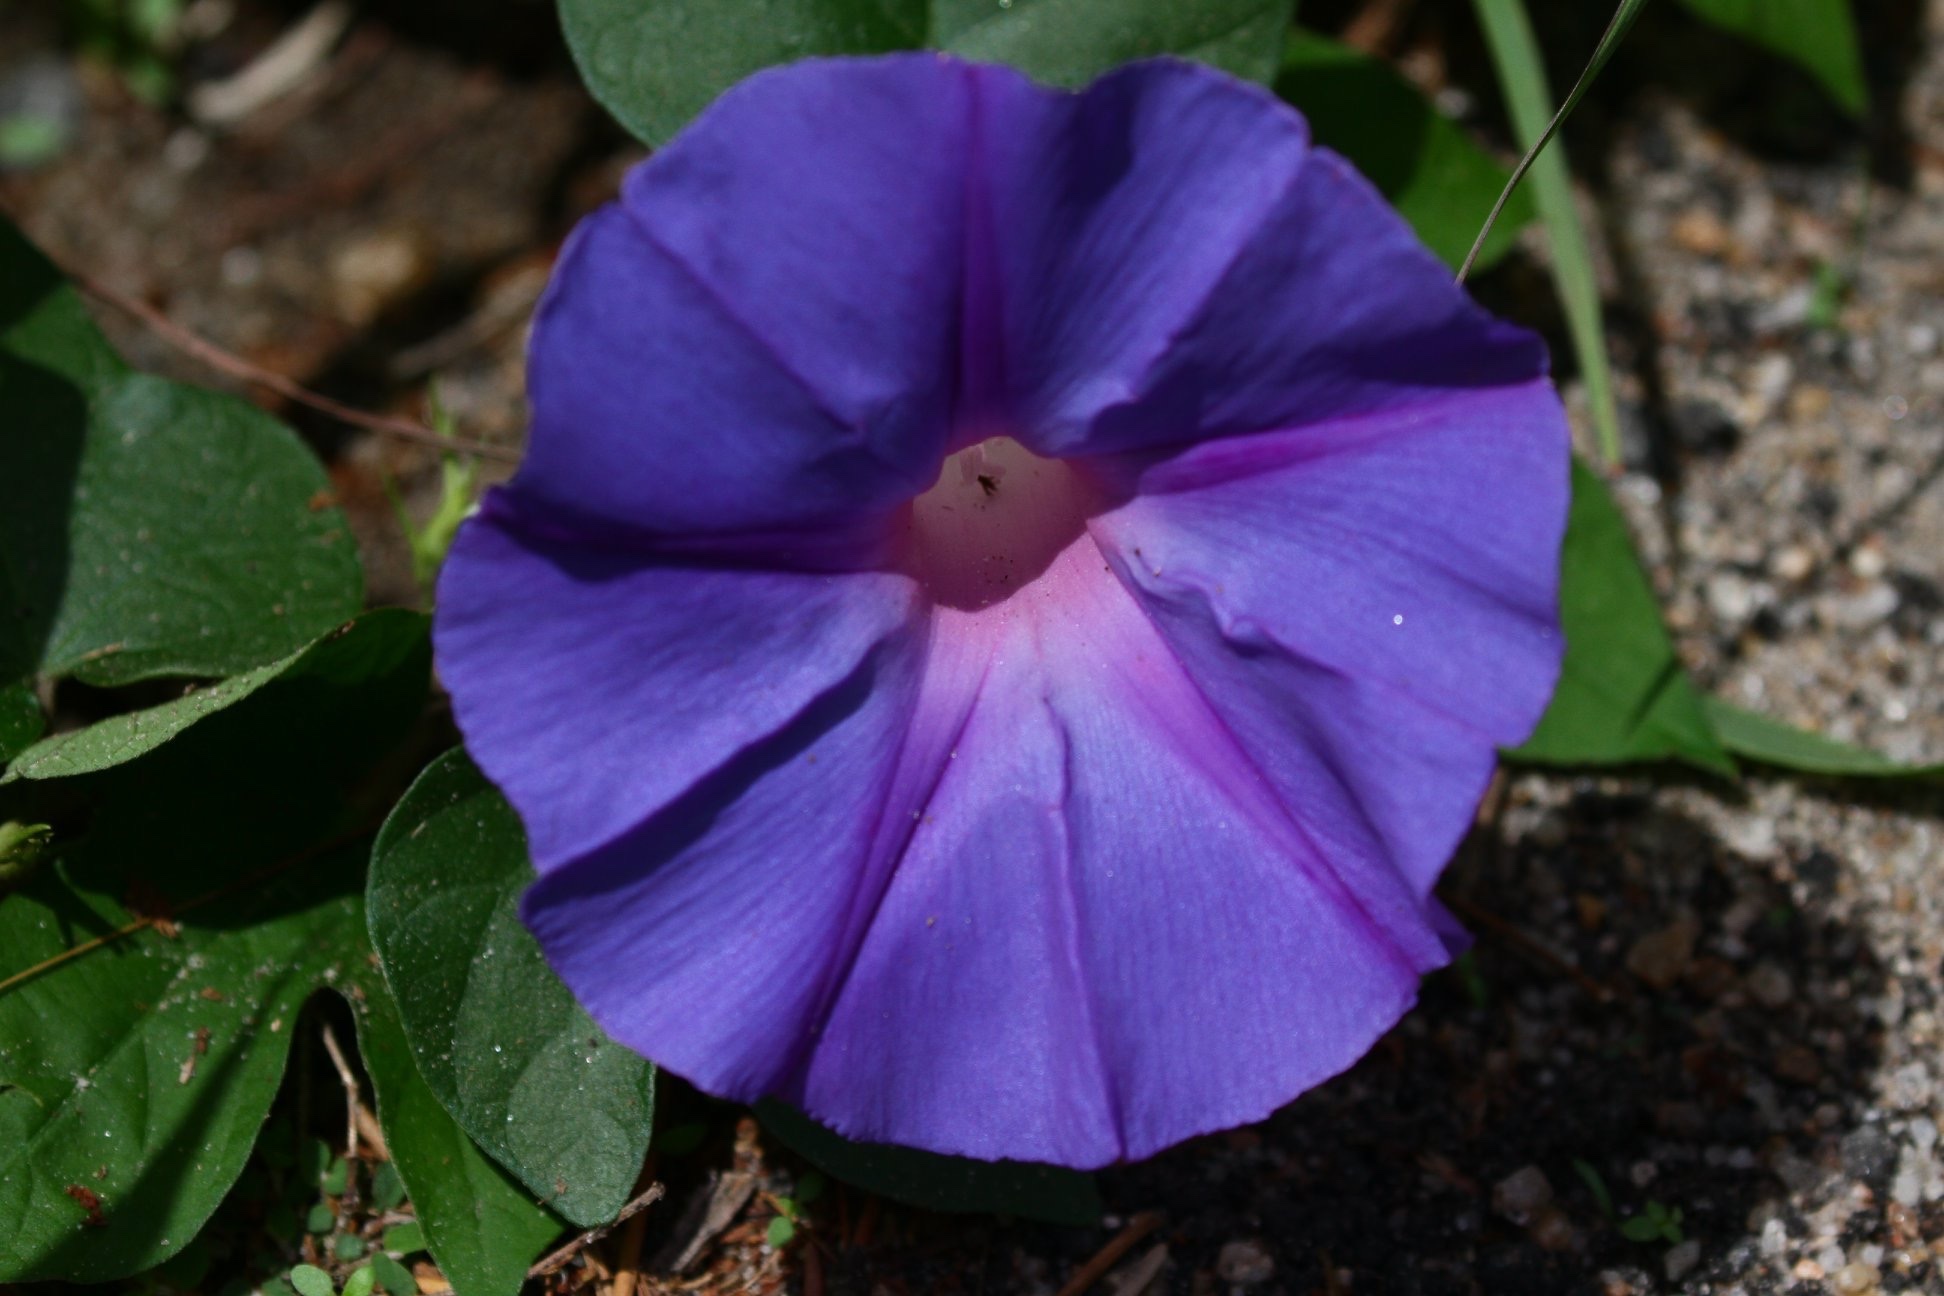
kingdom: Plantae
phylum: Tracheophyta
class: Magnoliopsida
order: Solanales
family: Convolvulaceae
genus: Ipomoea
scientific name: Ipomoea indica
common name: Blue dawnflower
